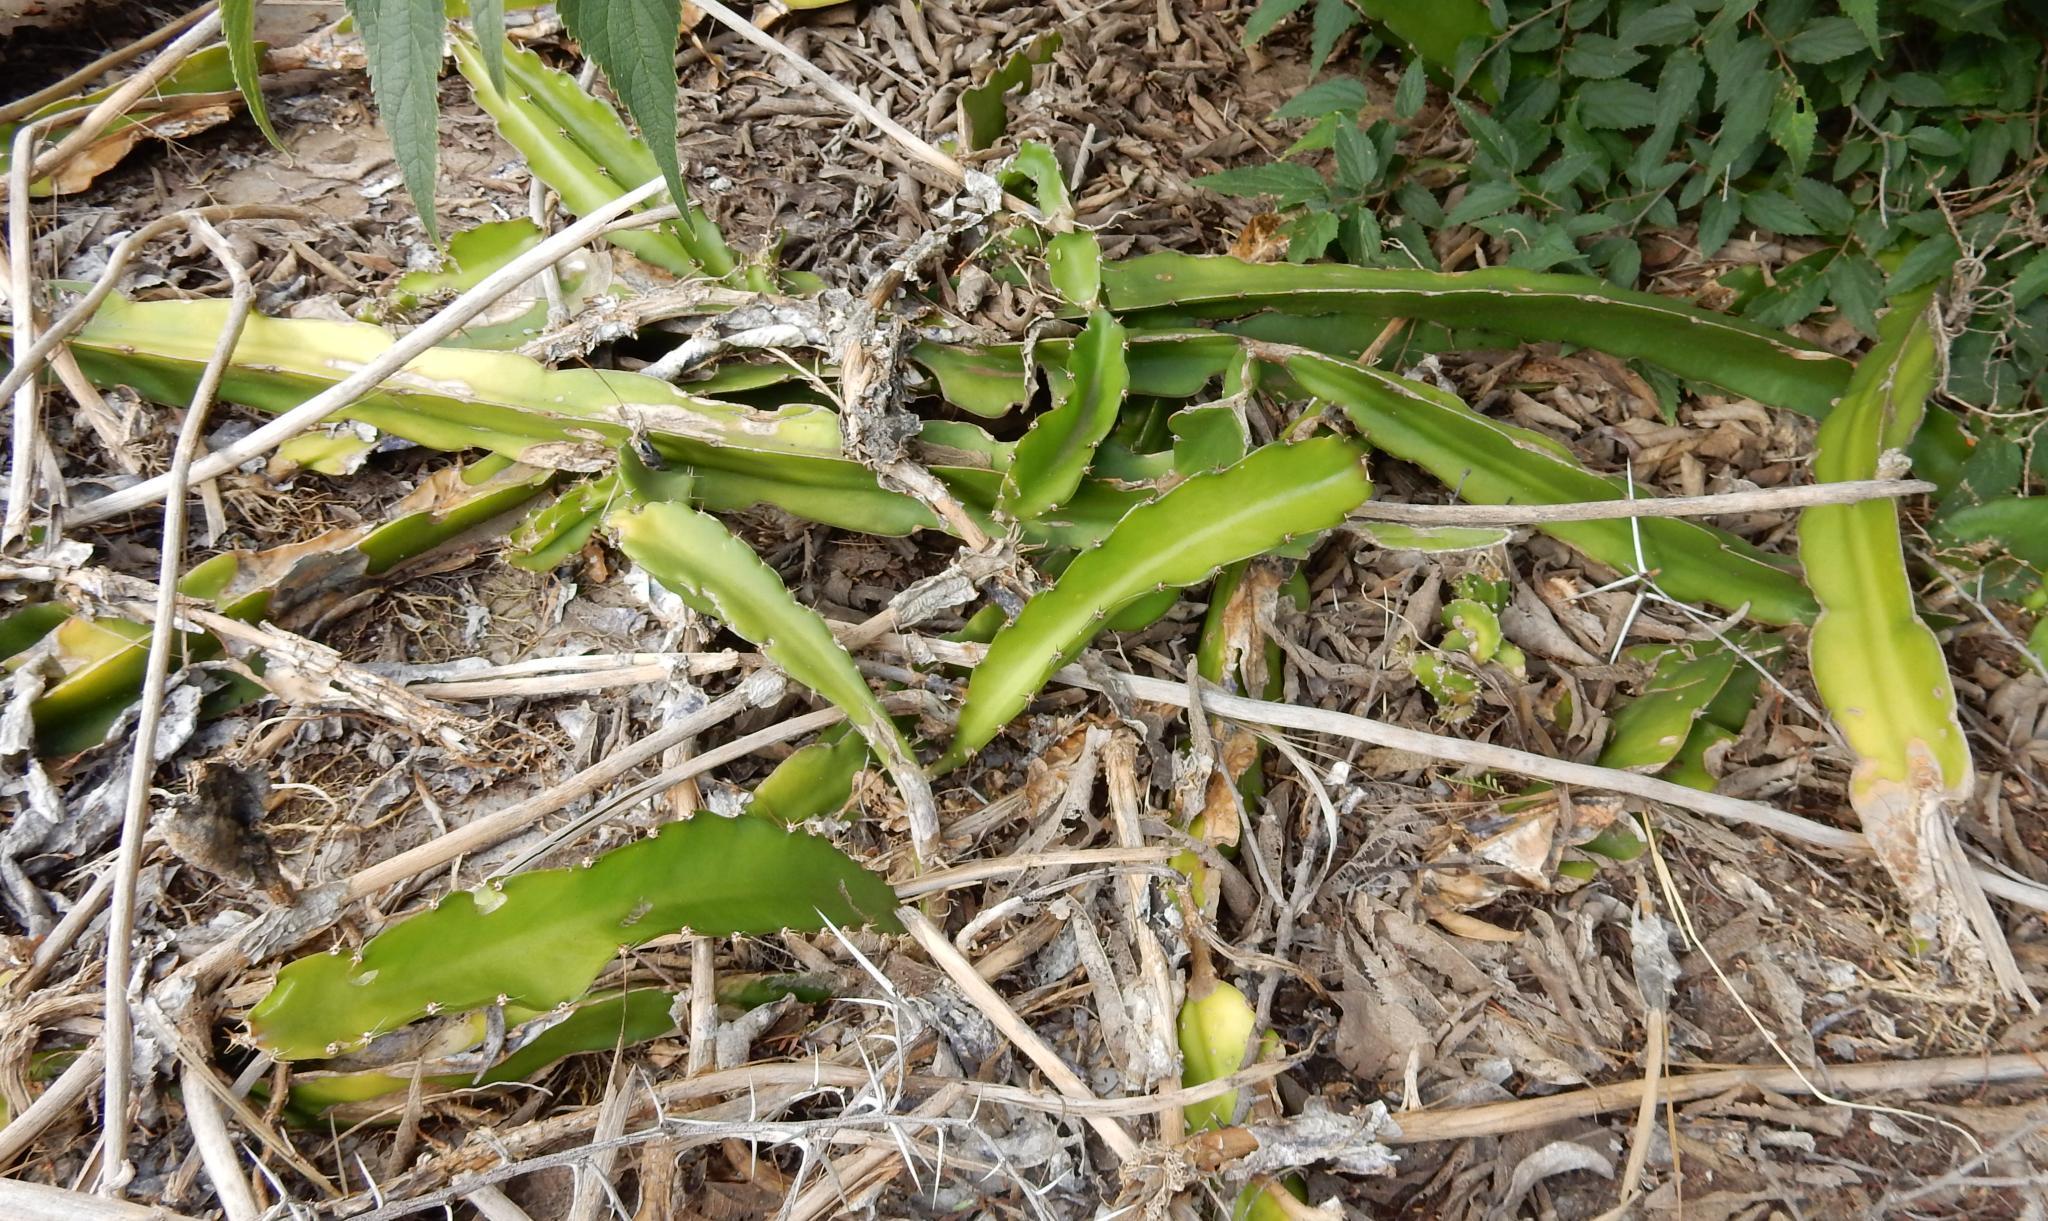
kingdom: Plantae
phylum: Tracheophyta
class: Magnoliopsida
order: Caryophyllales
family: Cactaceae
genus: Selenicereus
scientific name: Selenicereus undatus
